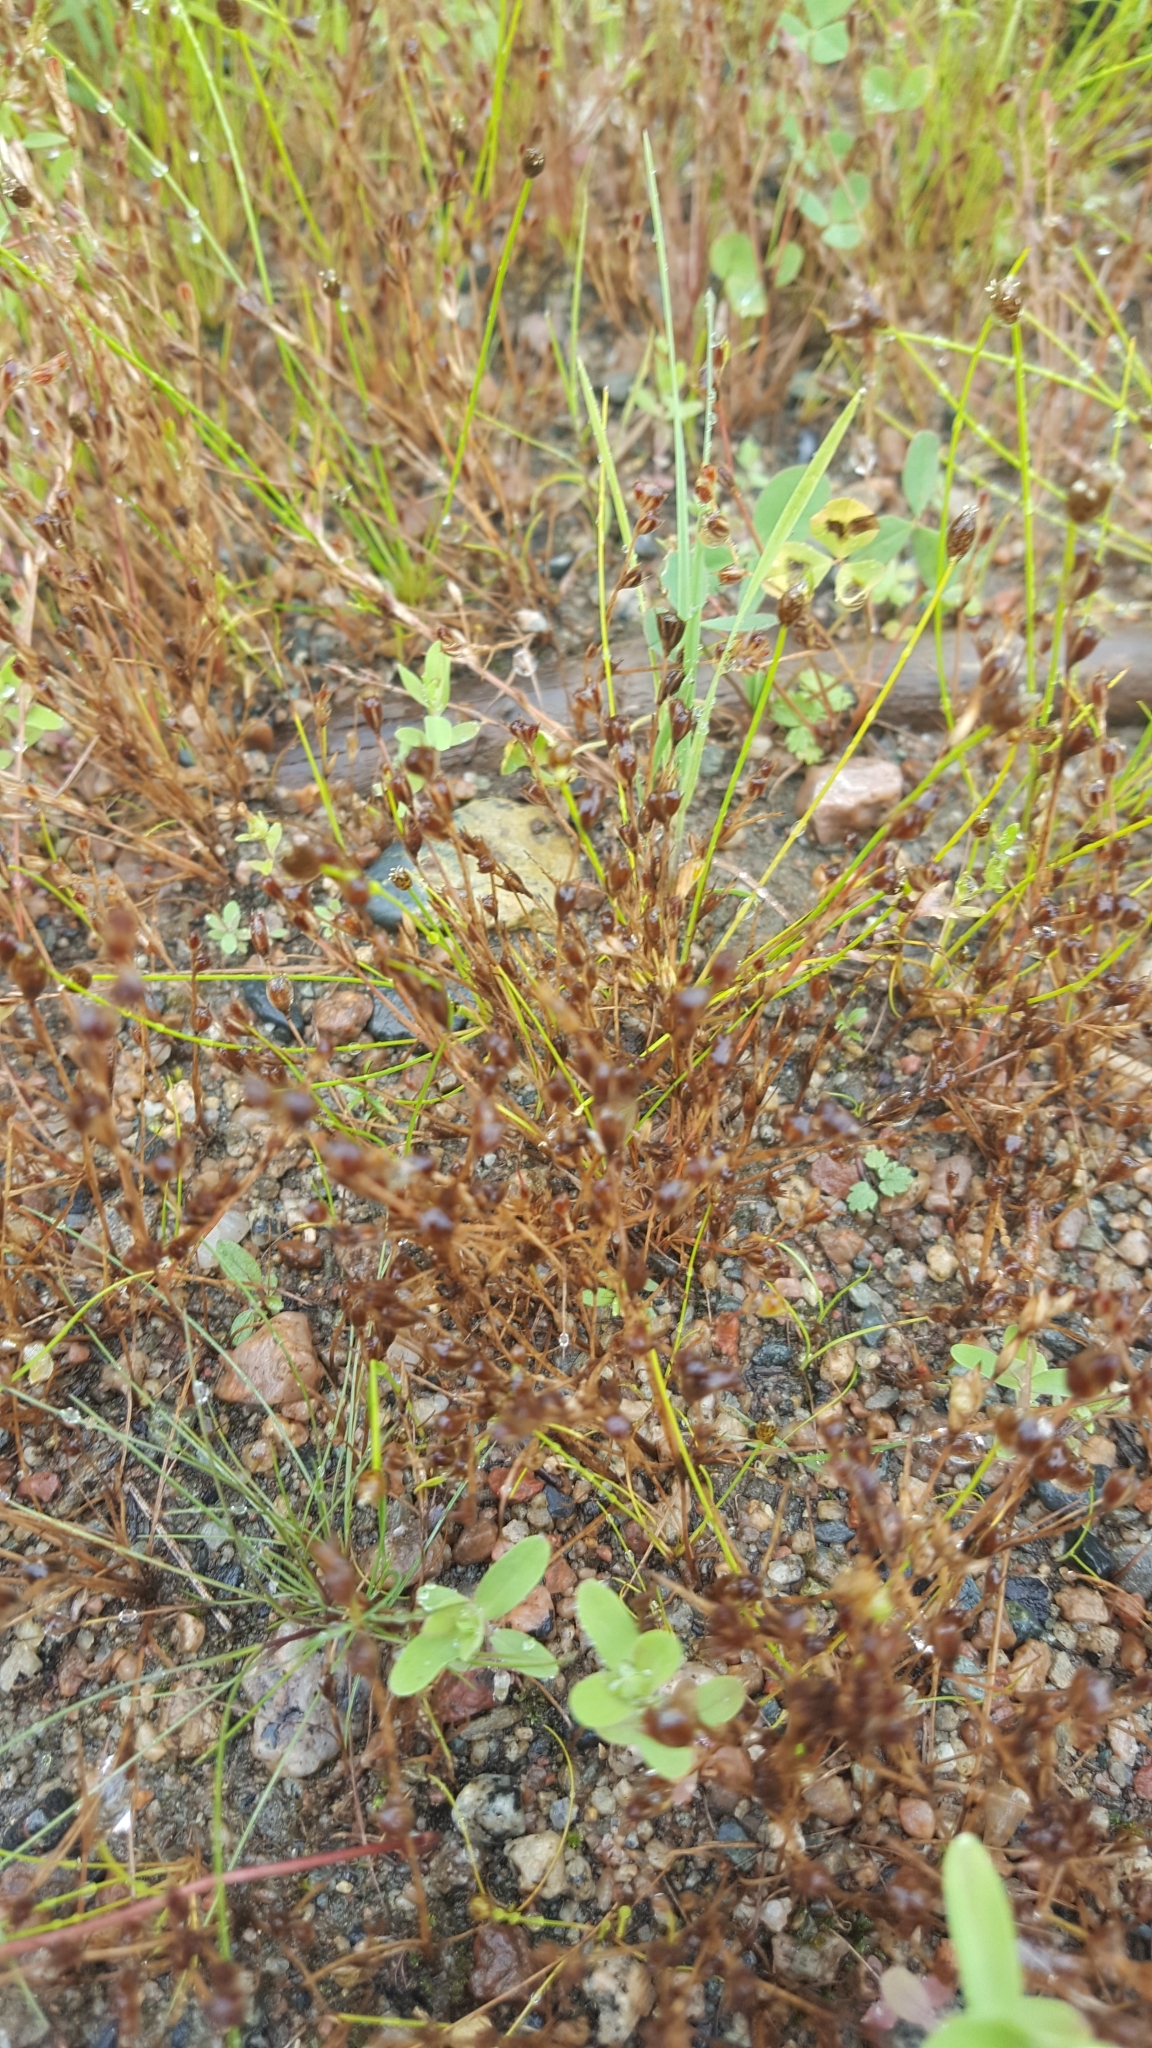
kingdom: Plantae
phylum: Tracheophyta
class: Liliopsida
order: Poales
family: Juncaceae
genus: Juncus
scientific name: Juncus bufonius
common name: Toad rush
